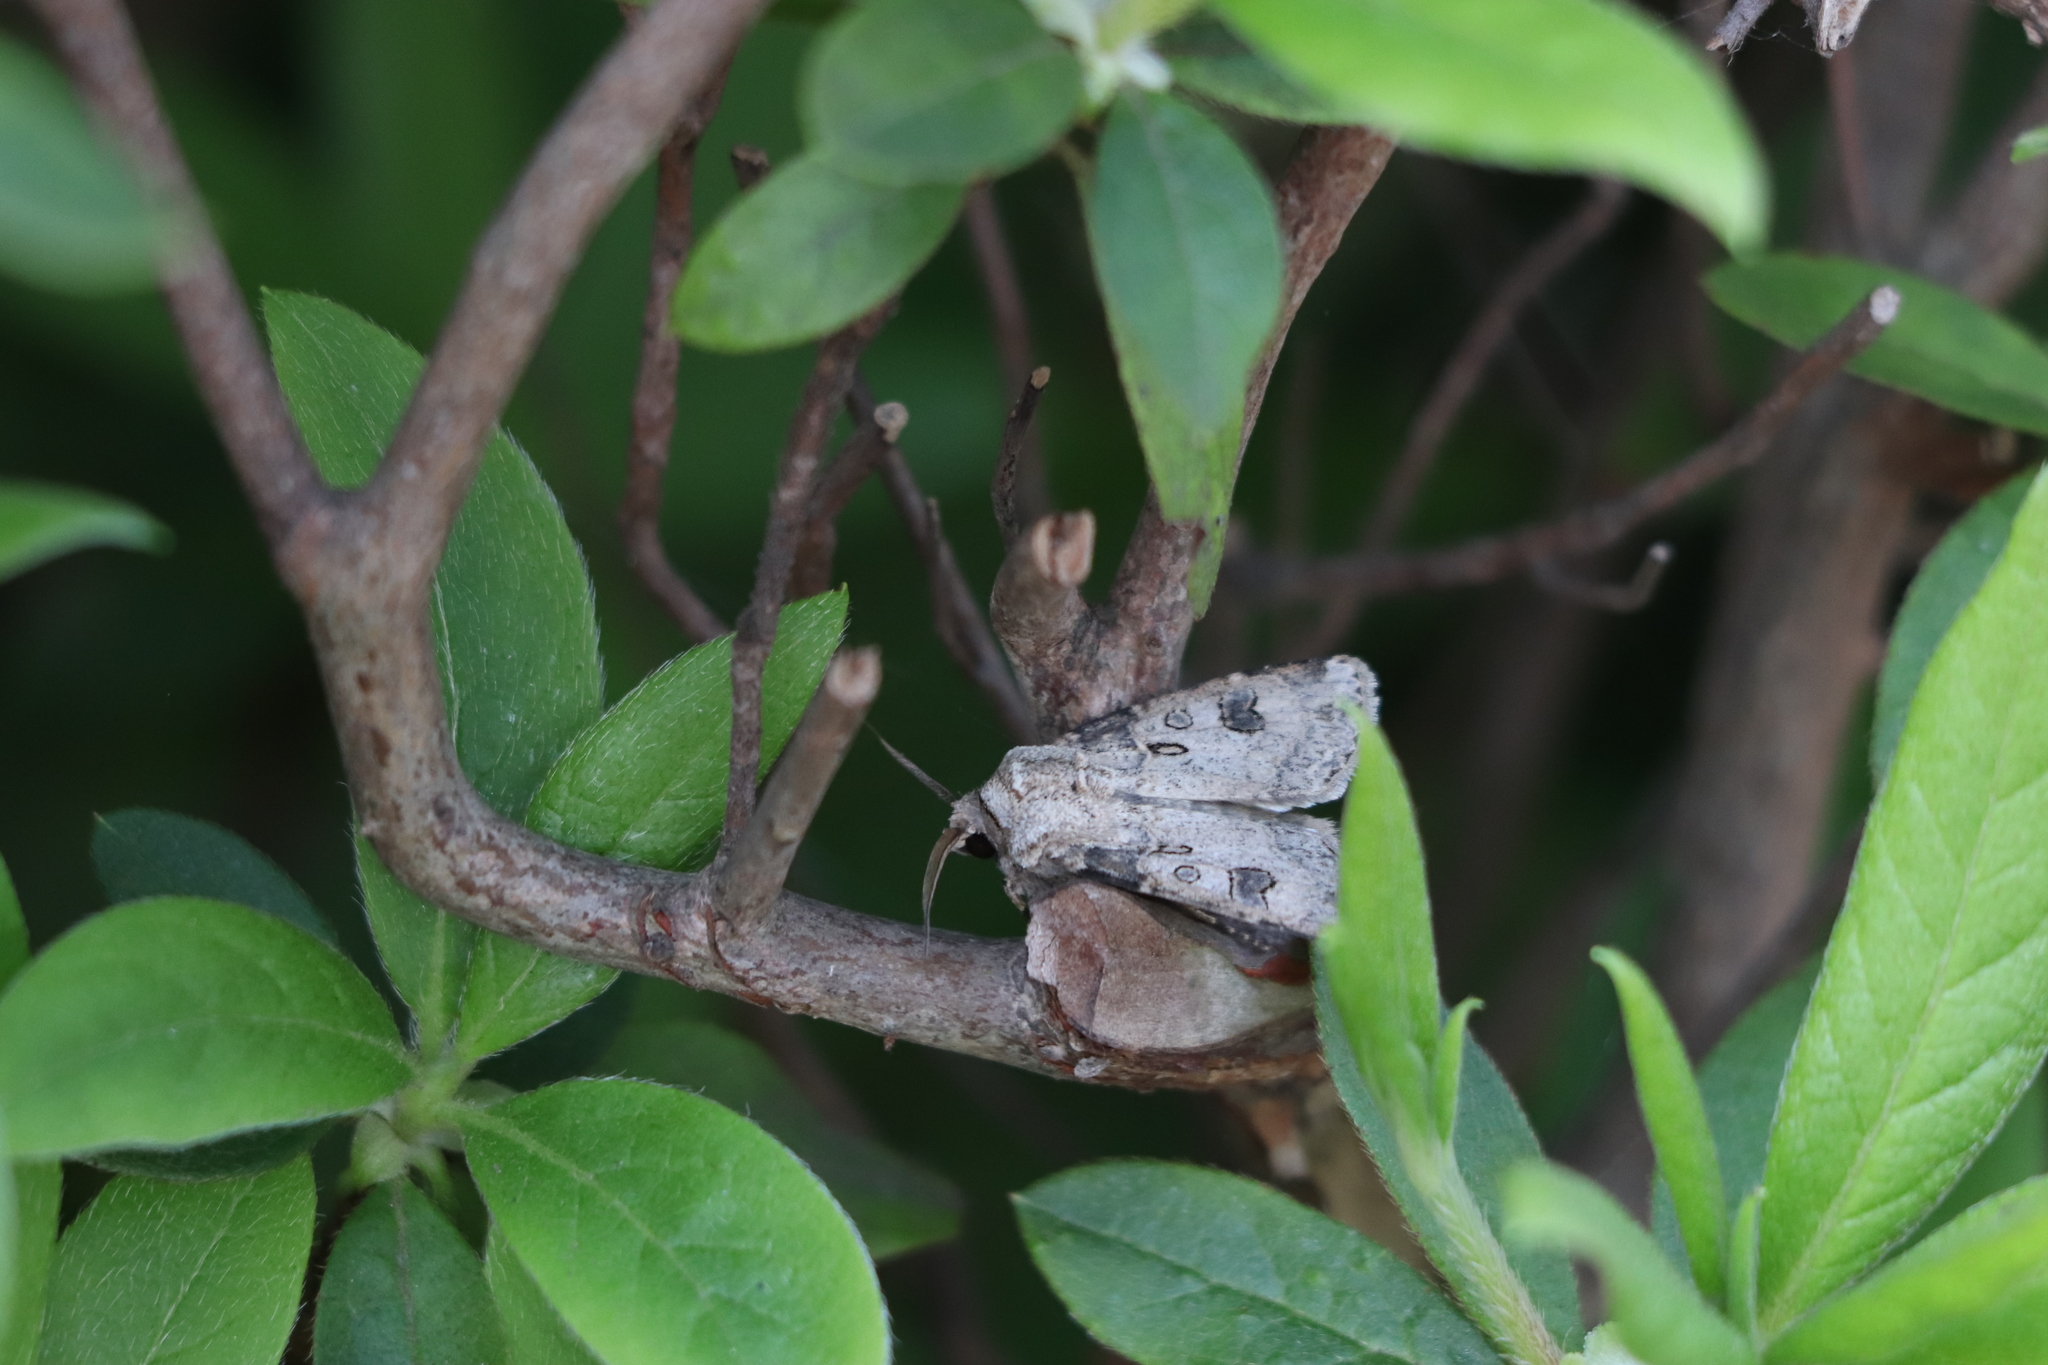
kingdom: Animalia
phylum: Arthropoda
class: Insecta
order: Lepidoptera
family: Noctuidae
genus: Agrotis
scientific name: Agrotis segetum
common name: Turnip moth
